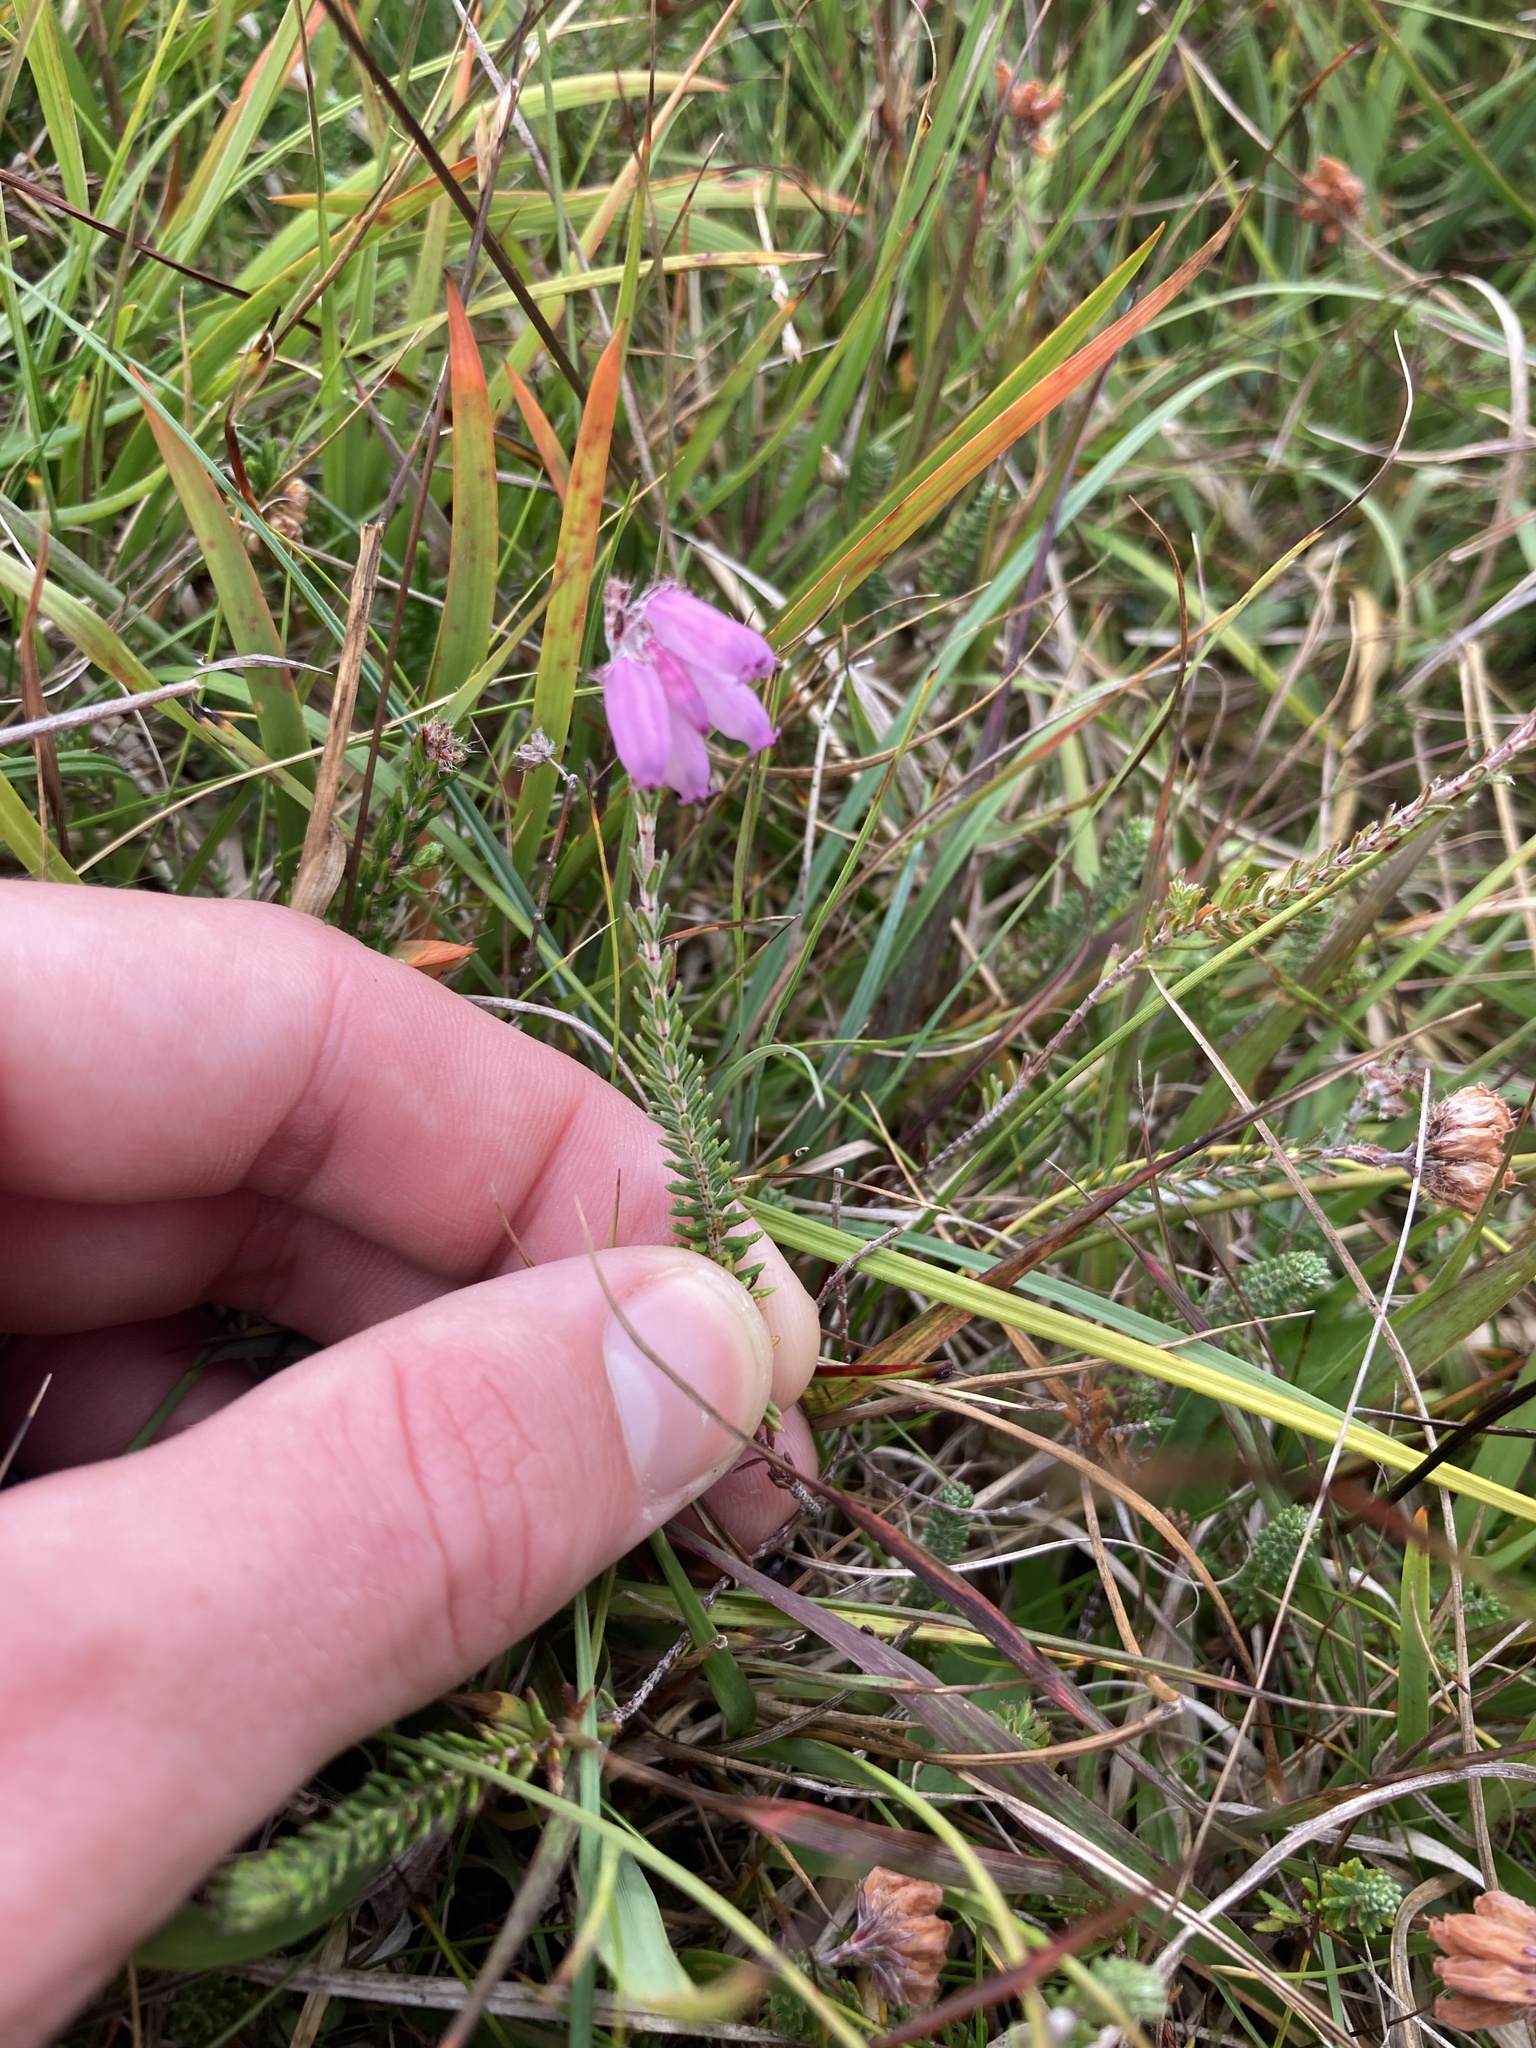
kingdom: Plantae
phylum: Tracheophyta
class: Magnoliopsida
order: Ericales
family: Ericaceae
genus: Erica
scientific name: Erica tetralix
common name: Cross-leaved heath
